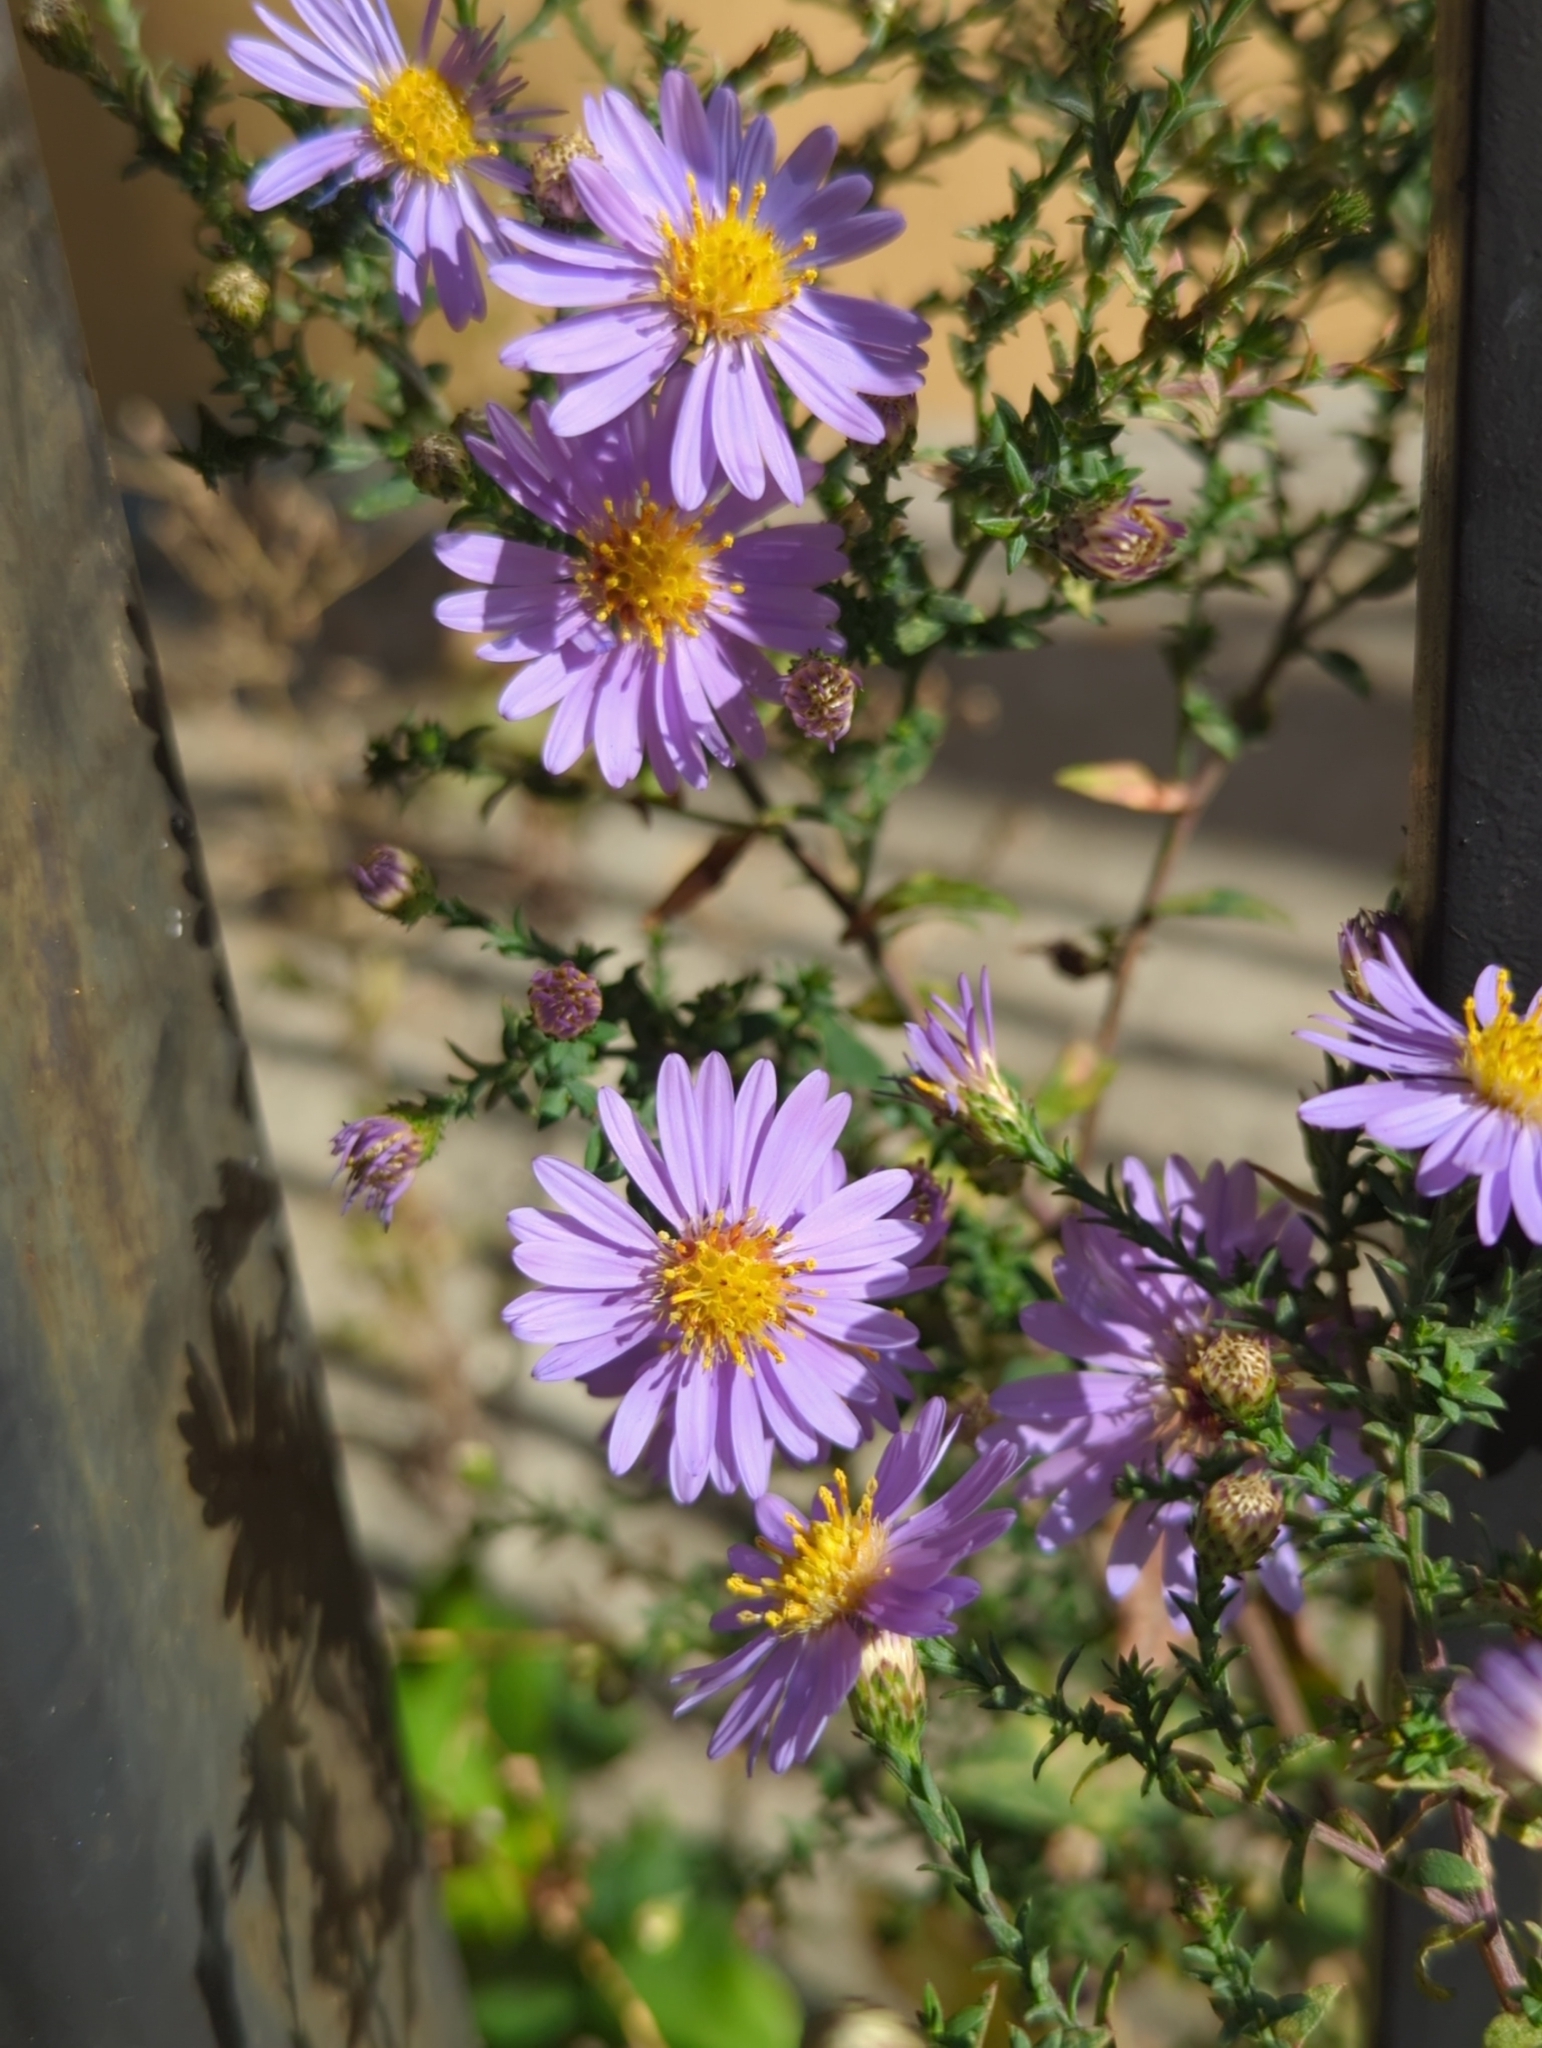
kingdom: Plantae
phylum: Tracheophyta
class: Magnoliopsida
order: Asterales
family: Asteraceae
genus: Symphyotrichum
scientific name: Symphyotrichum laeve
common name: Glaucous aster
